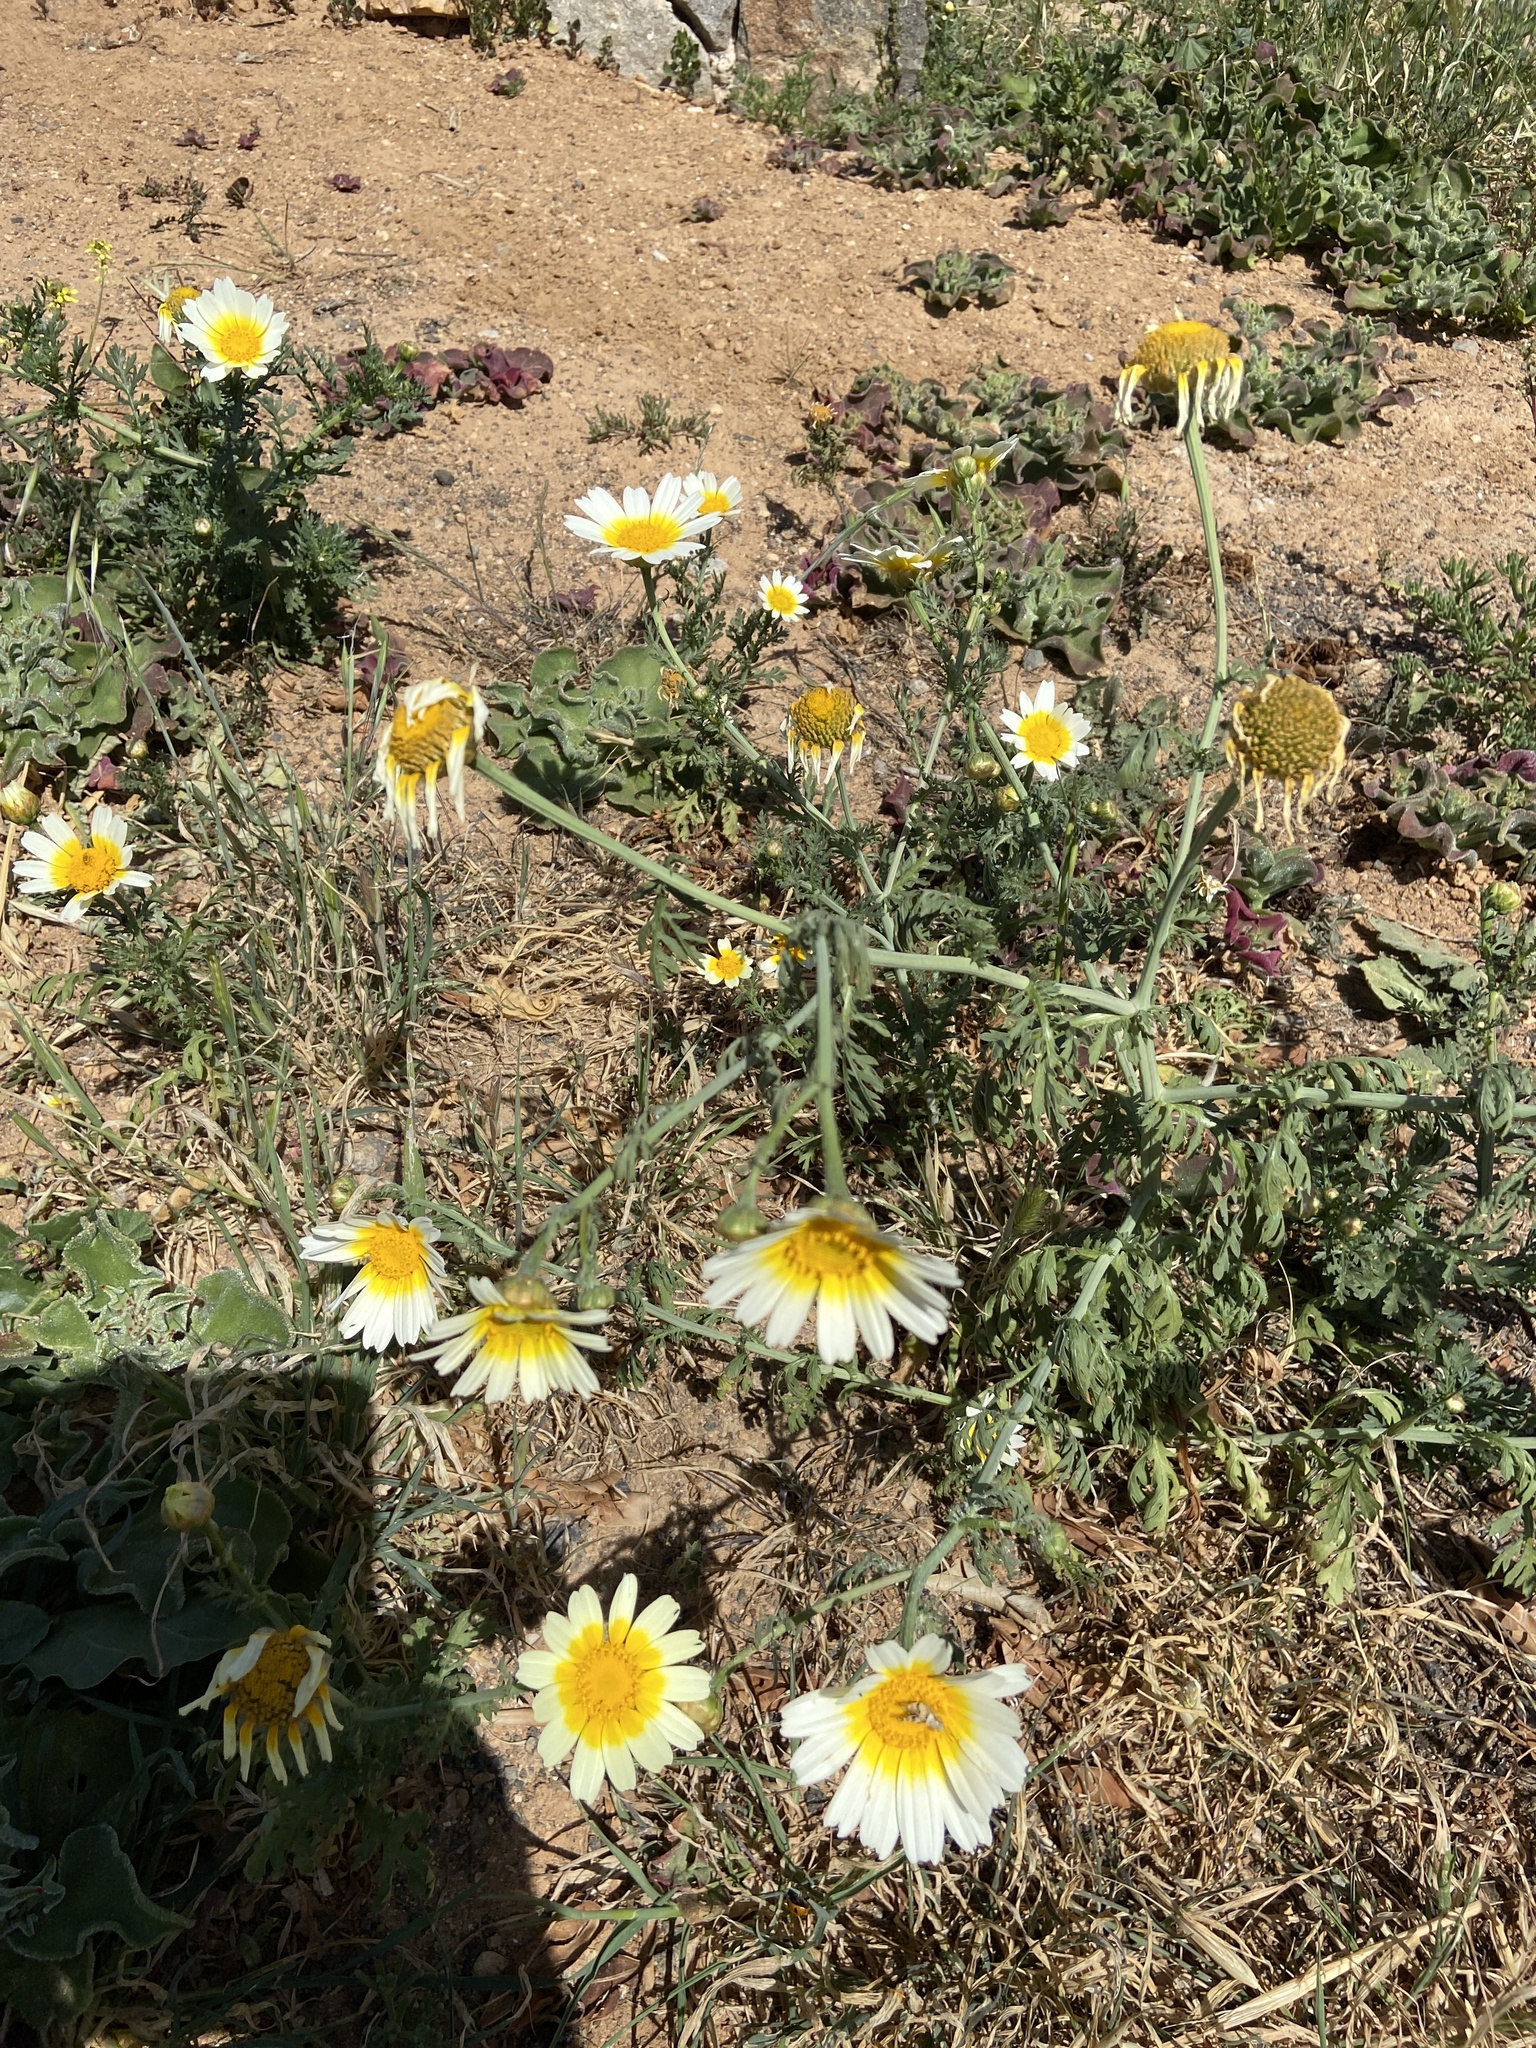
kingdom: Plantae
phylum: Tracheophyta
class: Magnoliopsida
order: Asterales
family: Asteraceae
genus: Glebionis
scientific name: Glebionis coronaria
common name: Crowndaisy
